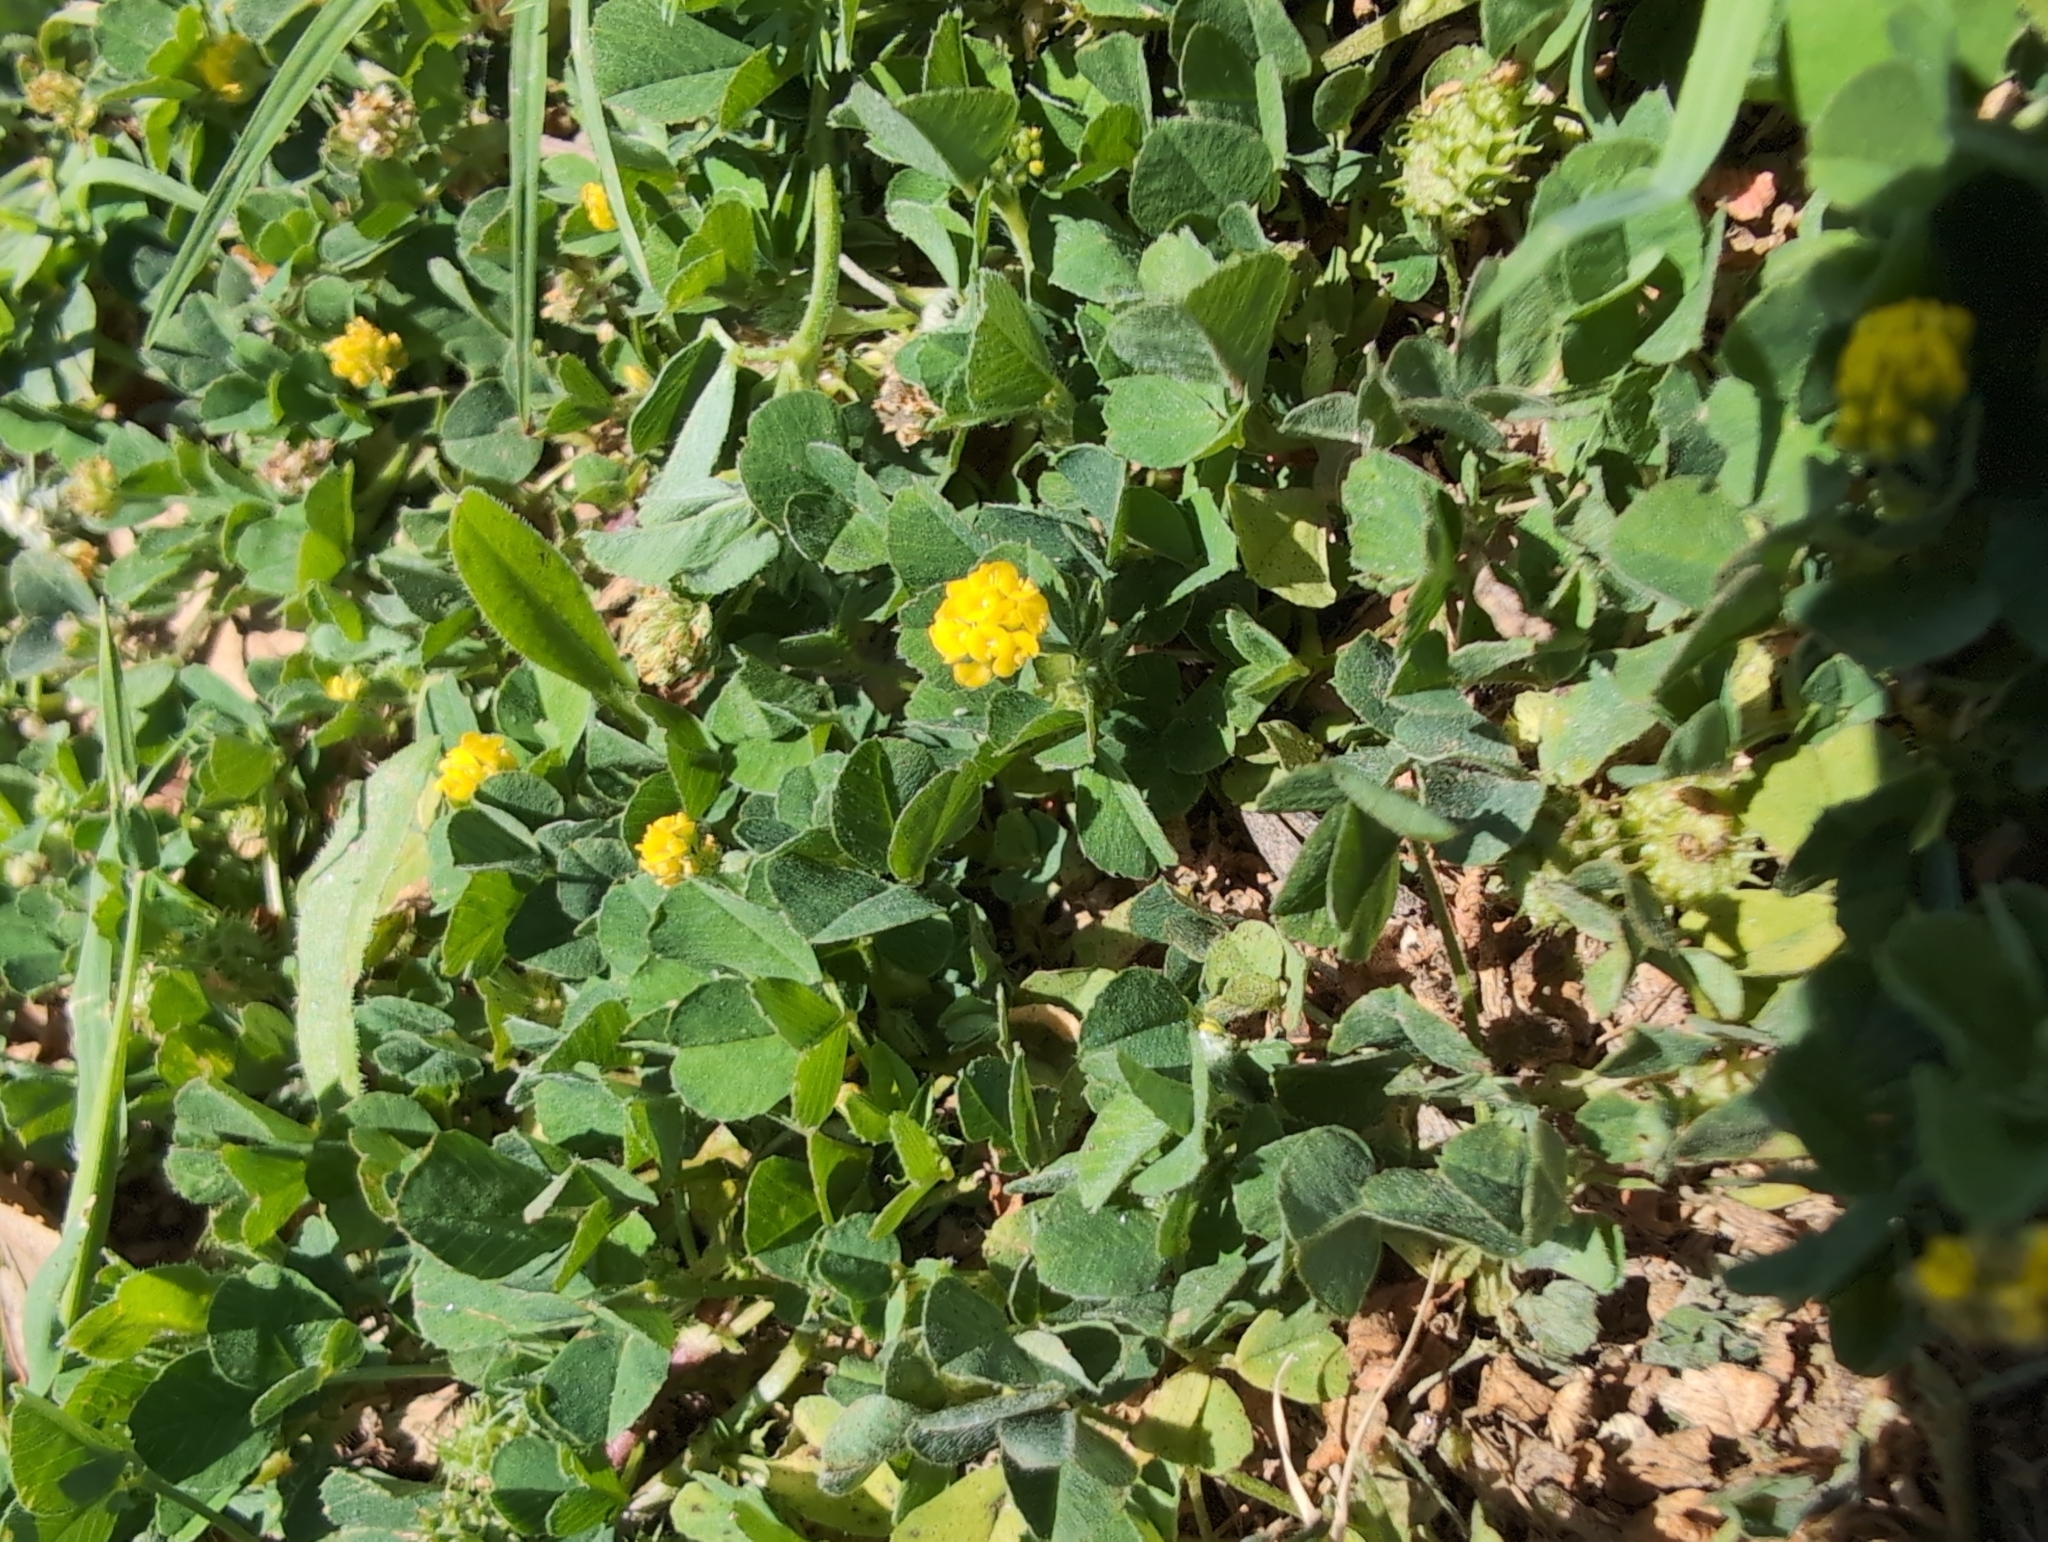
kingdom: Plantae
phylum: Tracheophyta
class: Magnoliopsida
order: Fabales
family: Fabaceae
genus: Medicago
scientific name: Medicago lupulina
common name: Black medick
